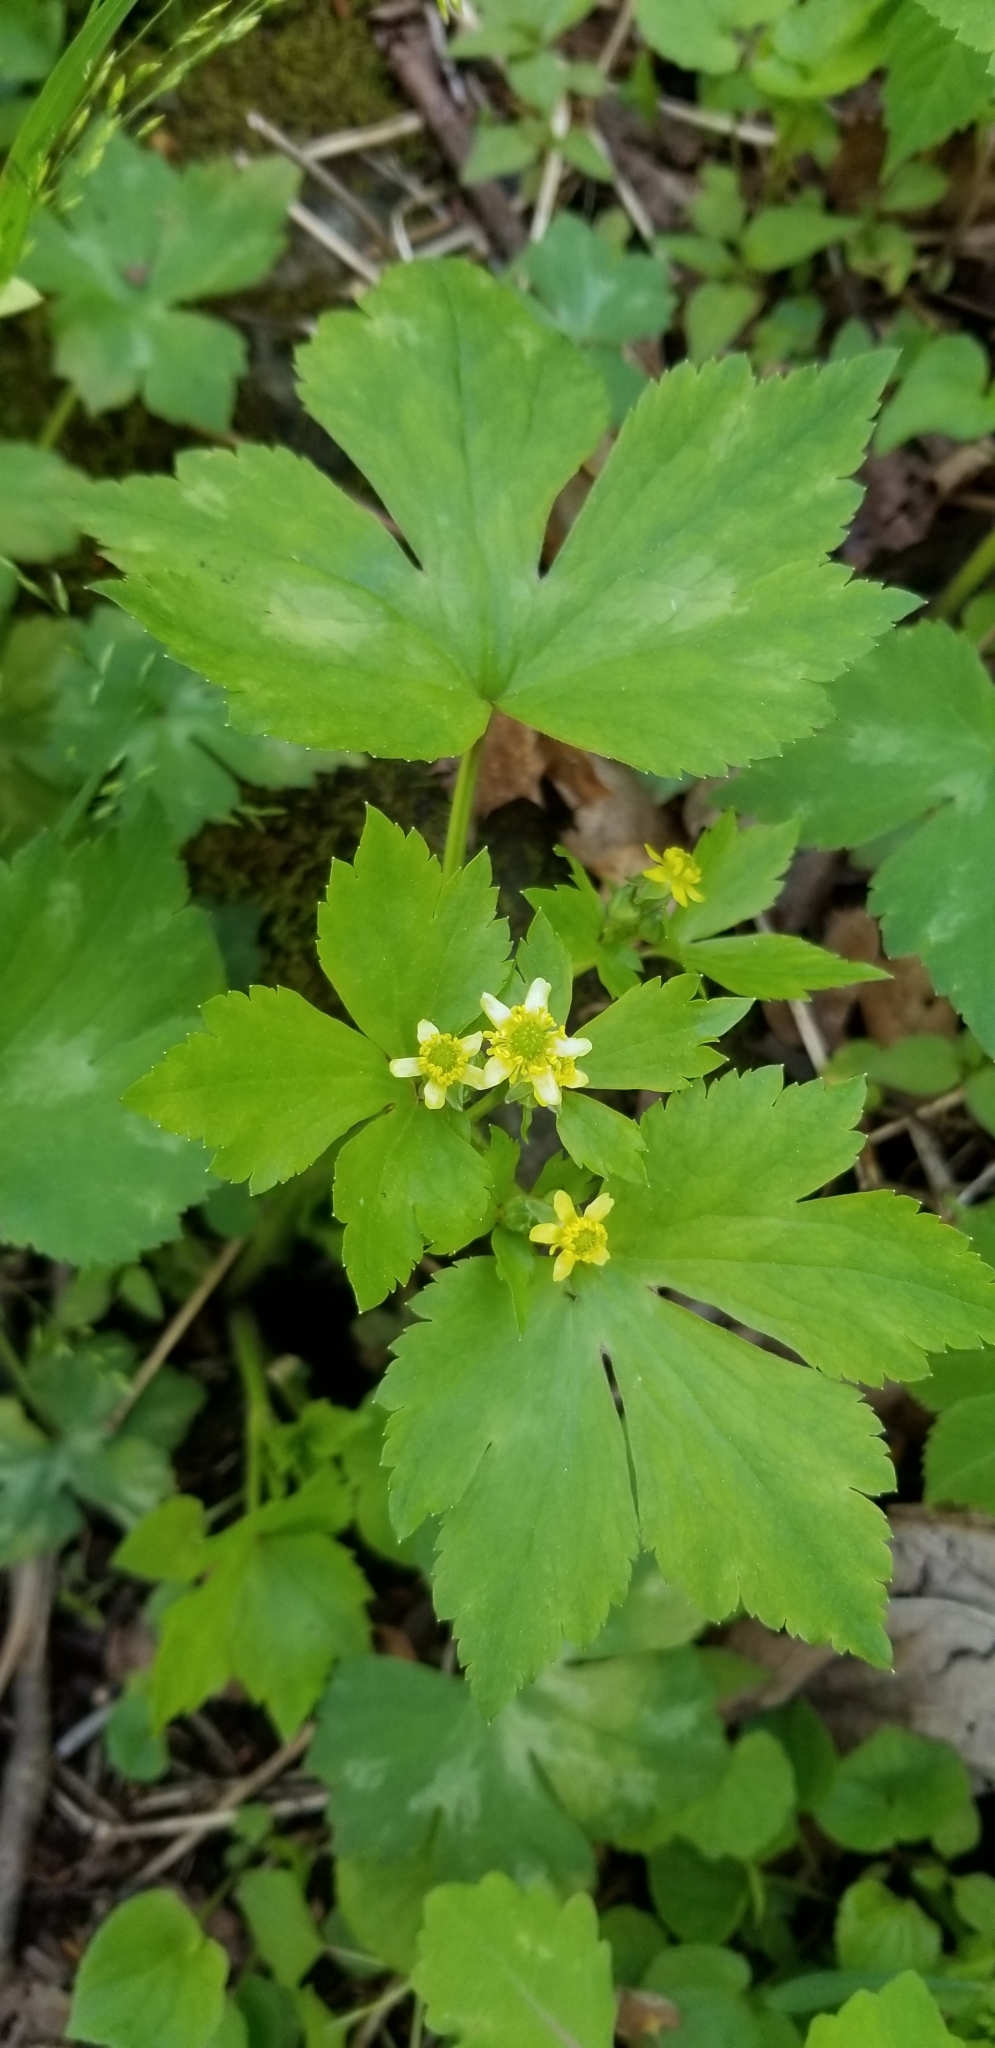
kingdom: Plantae
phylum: Tracheophyta
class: Magnoliopsida
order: Ranunculales
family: Ranunculaceae
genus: Ranunculus
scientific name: Ranunculus recurvatus
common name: Blisterwort
